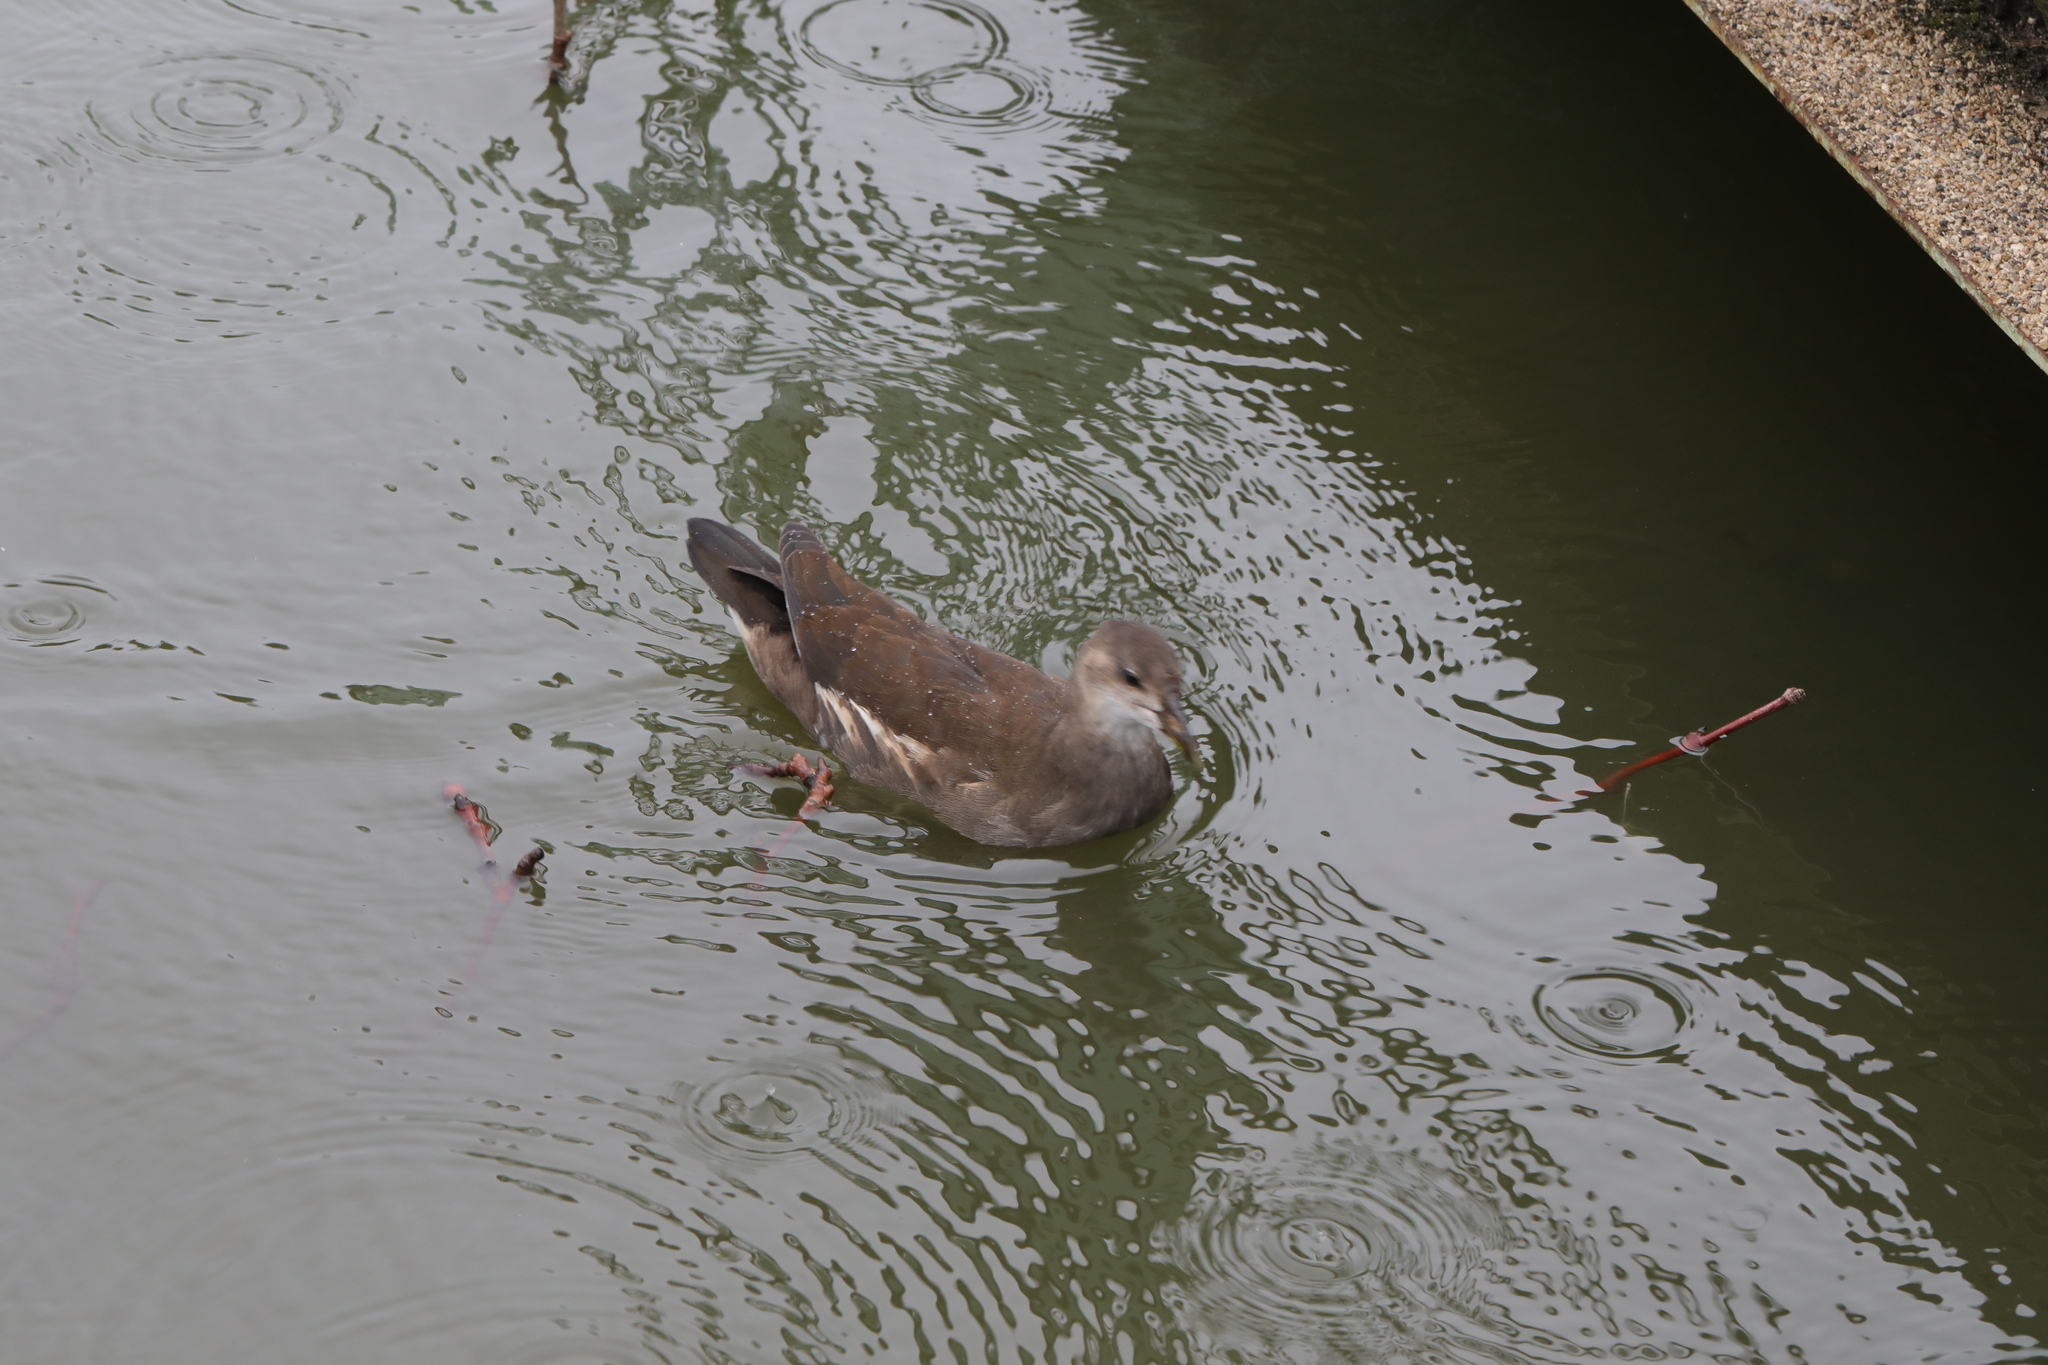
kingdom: Animalia
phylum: Chordata
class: Aves
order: Gruiformes
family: Rallidae
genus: Gallinula
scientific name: Gallinula chloropus
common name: Common moorhen
